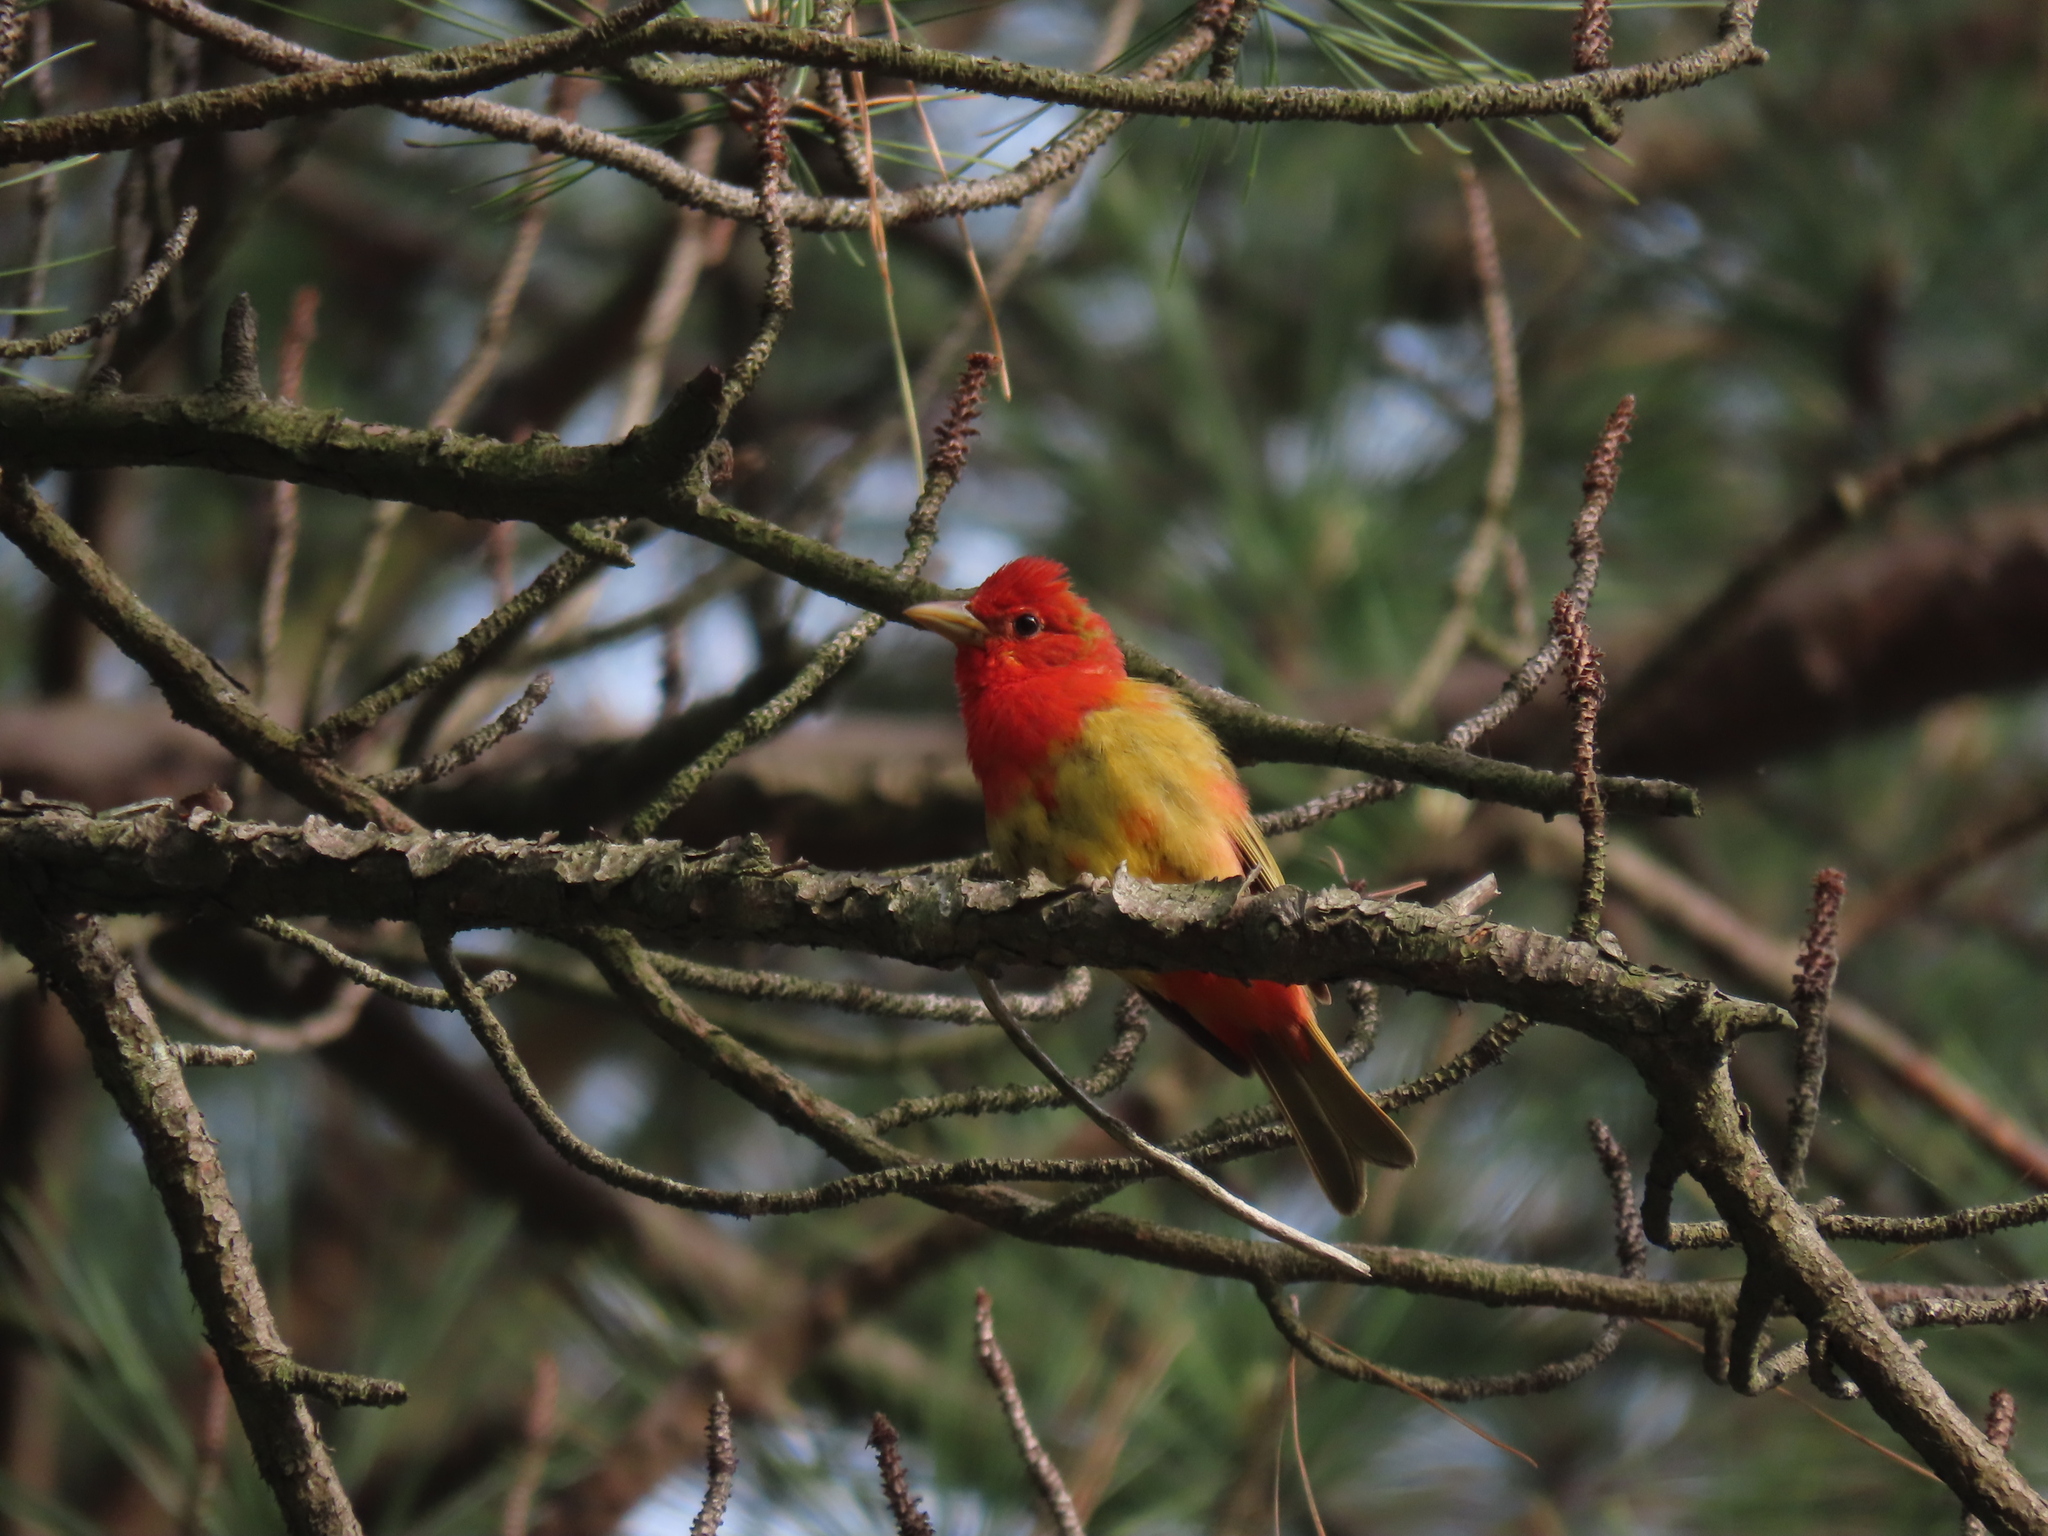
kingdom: Animalia
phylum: Chordata
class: Aves
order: Passeriformes
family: Cardinalidae
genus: Piranga
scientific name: Piranga rubra
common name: Summer tanager
